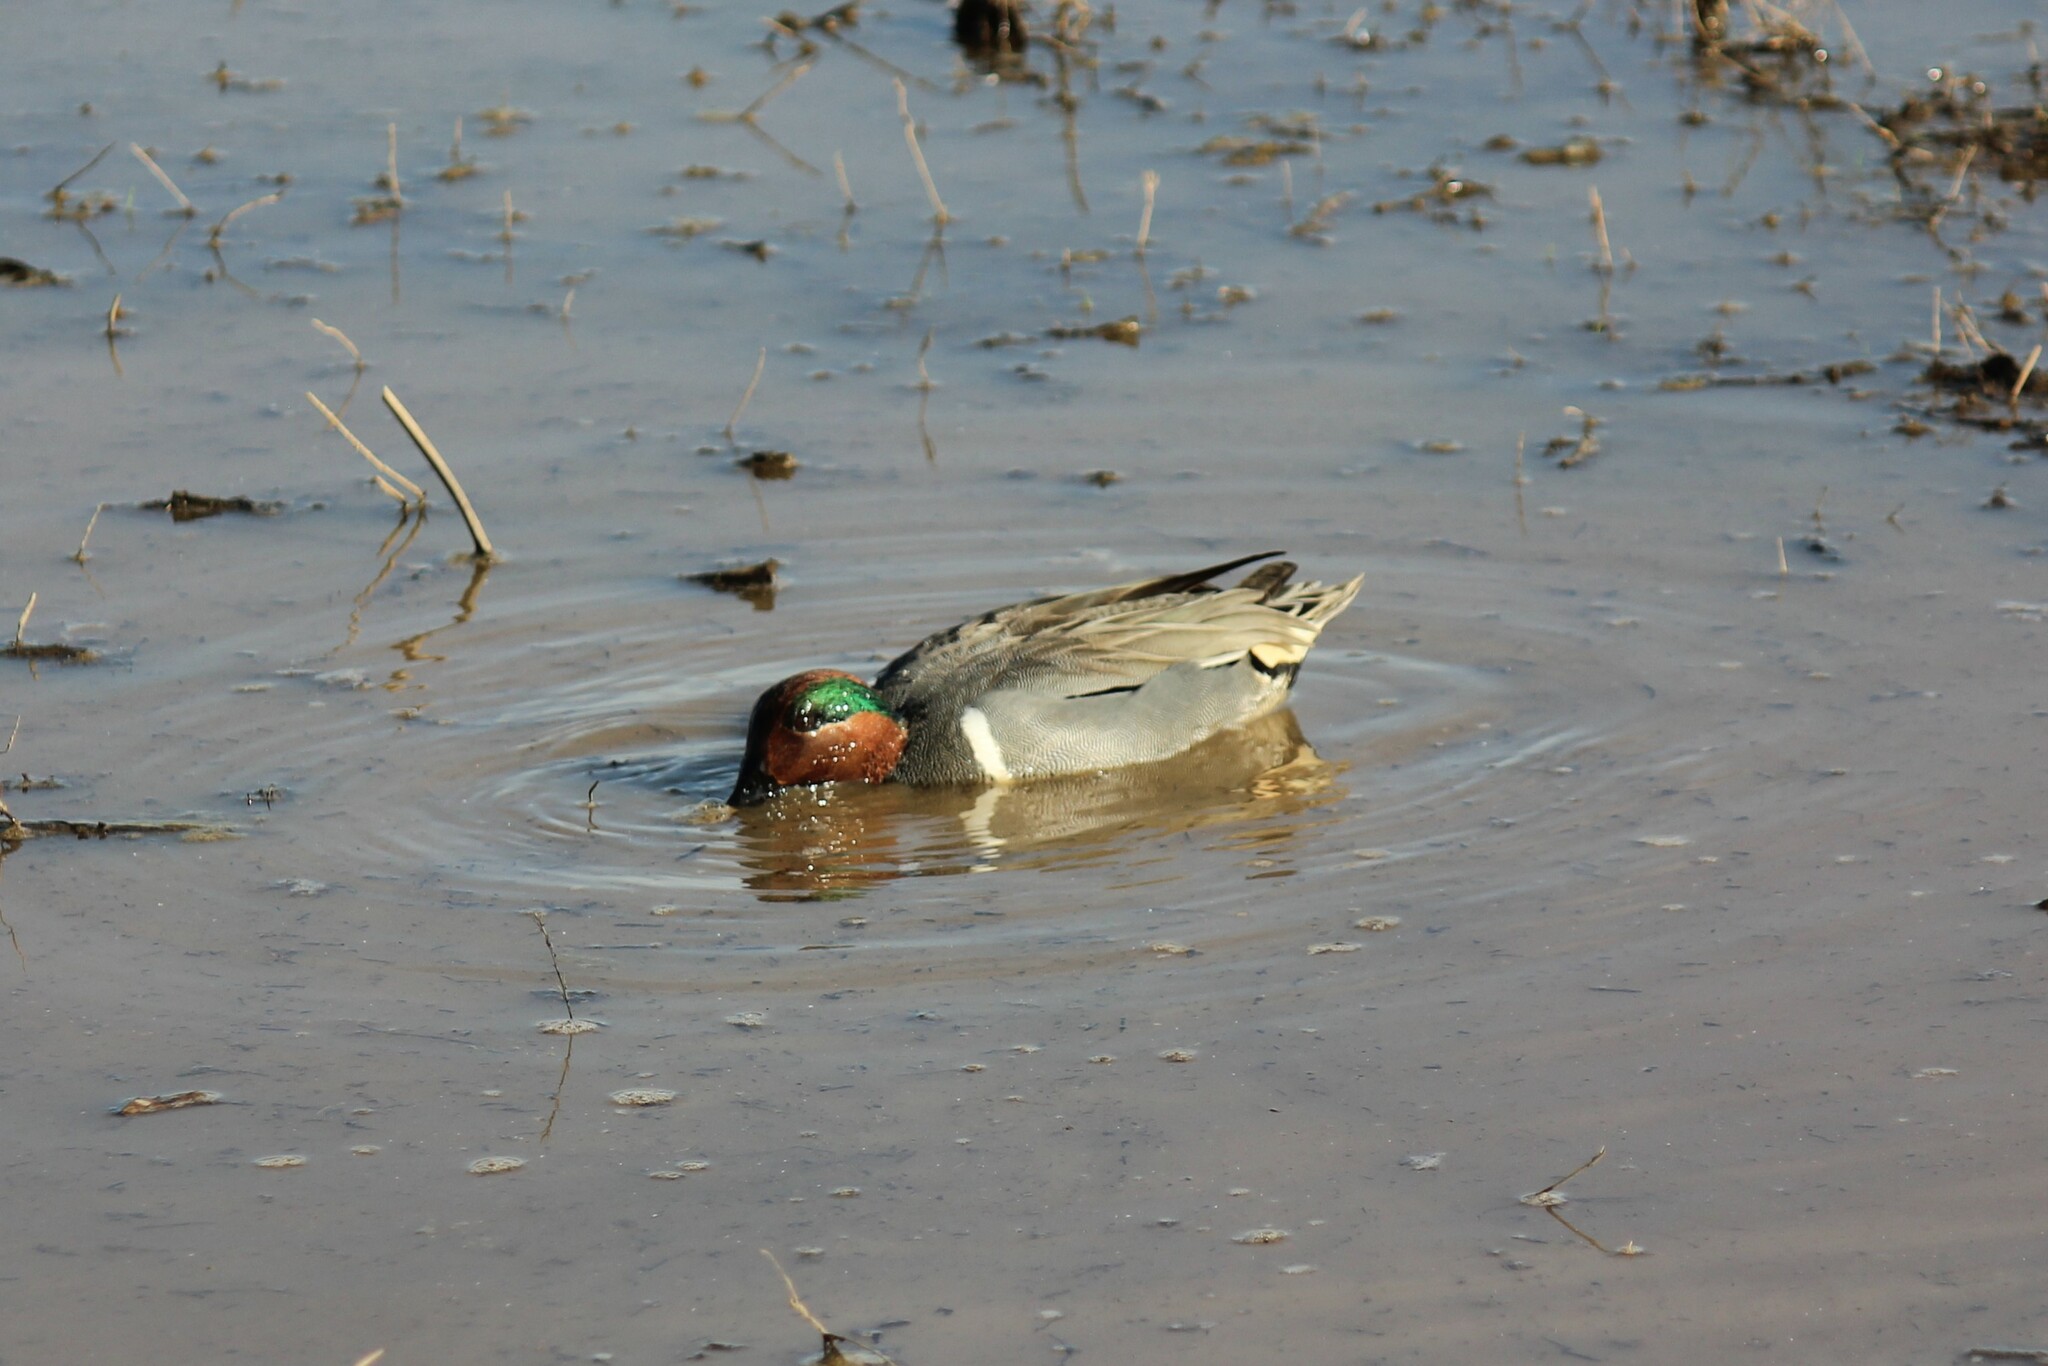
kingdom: Animalia
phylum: Chordata
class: Aves
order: Anseriformes
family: Anatidae
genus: Anas
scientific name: Anas crecca
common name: Eurasian teal
